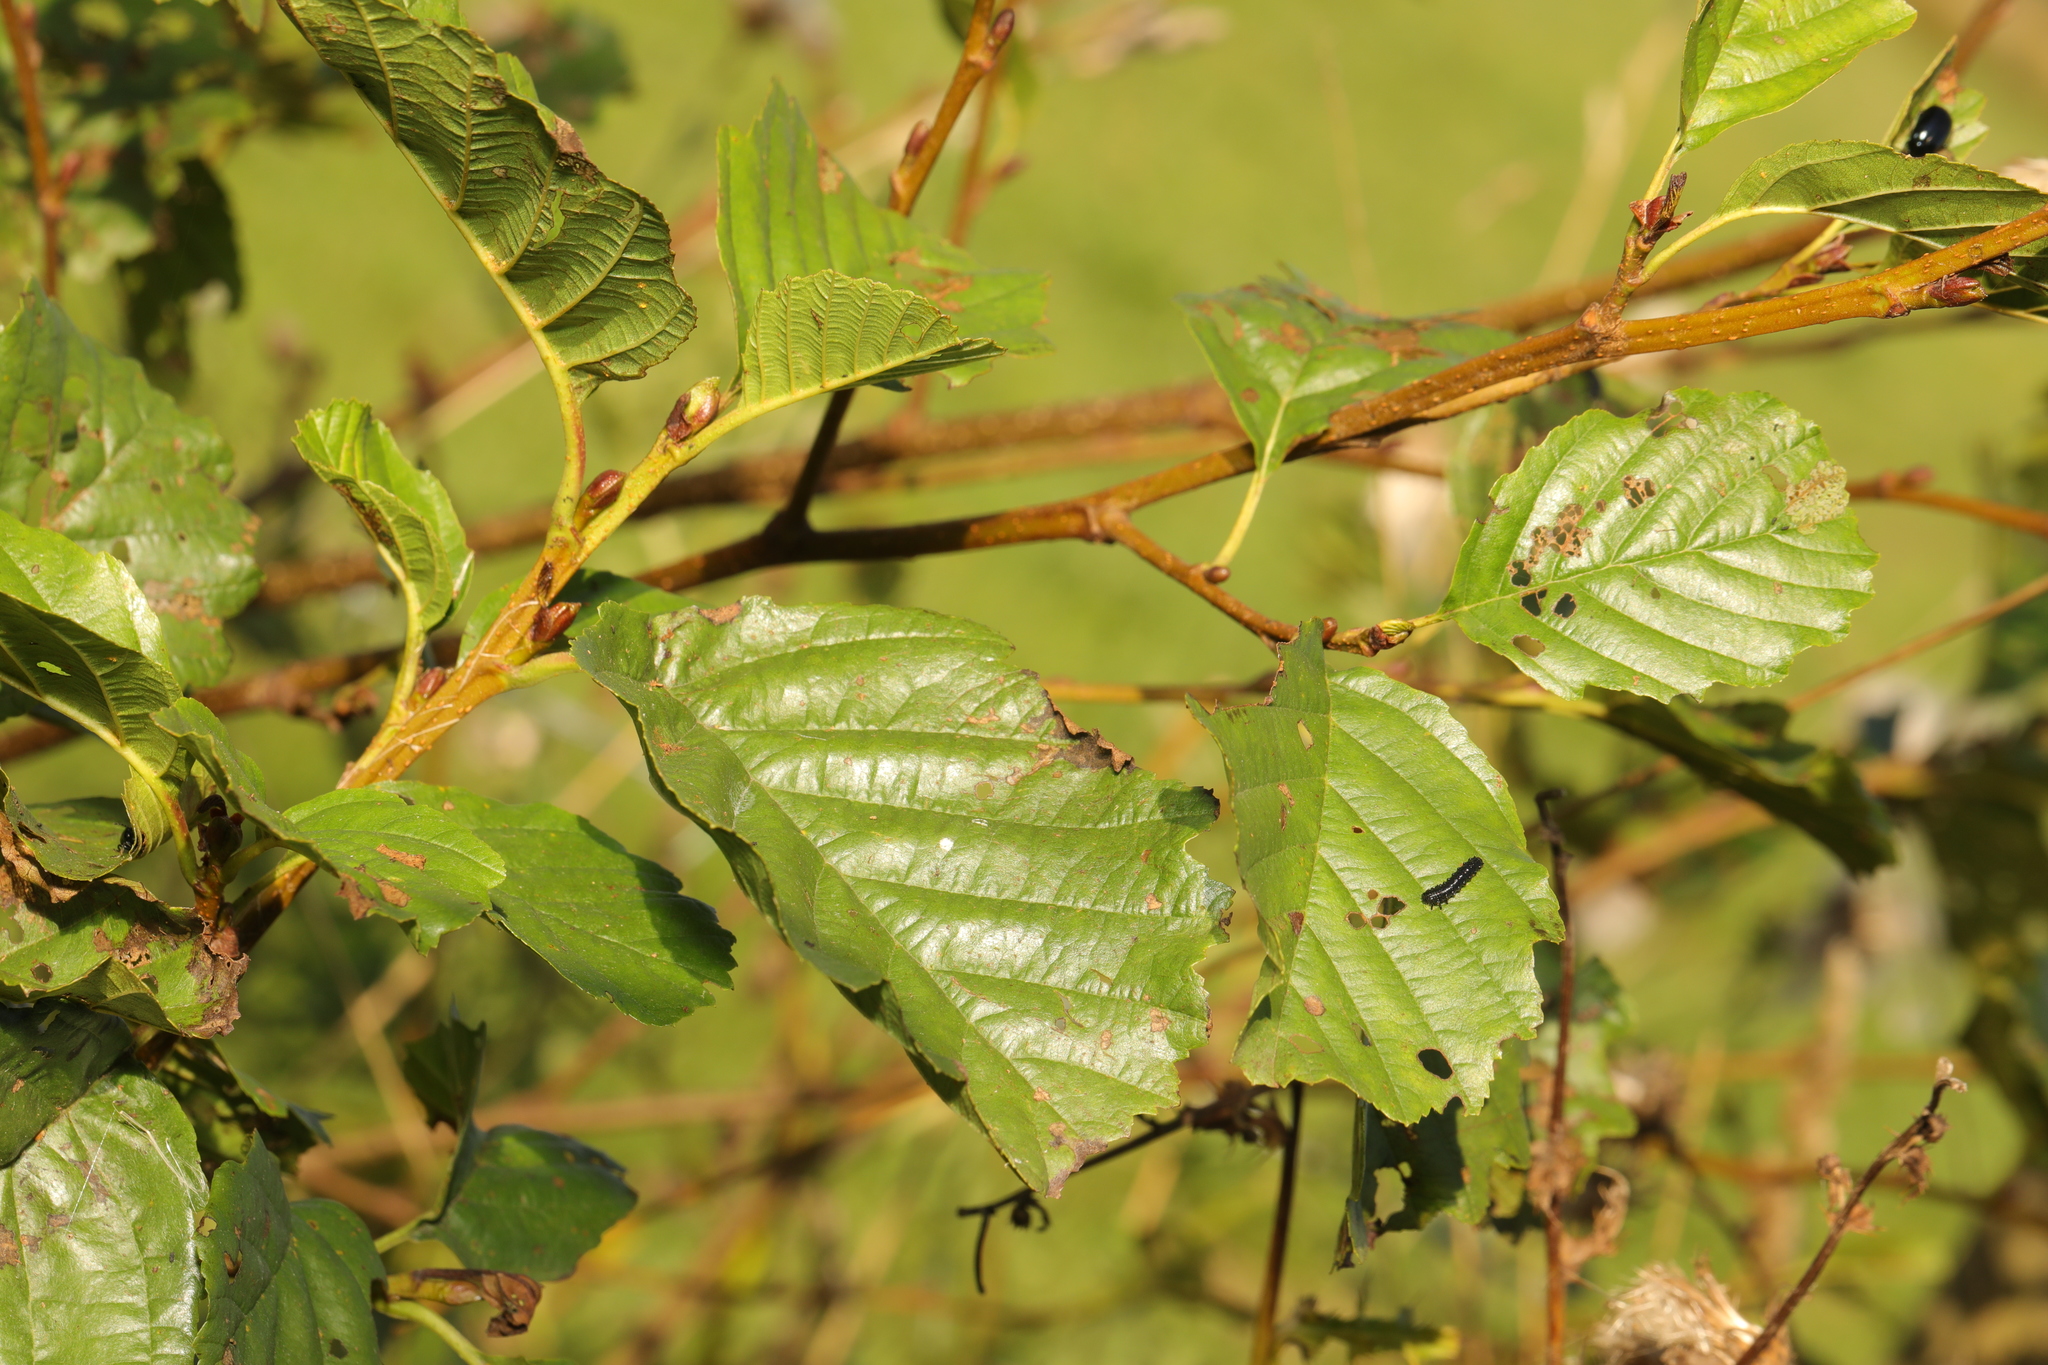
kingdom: Plantae
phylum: Tracheophyta
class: Magnoliopsida
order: Fagales
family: Betulaceae
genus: Alnus
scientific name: Alnus glutinosa
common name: Black alder
